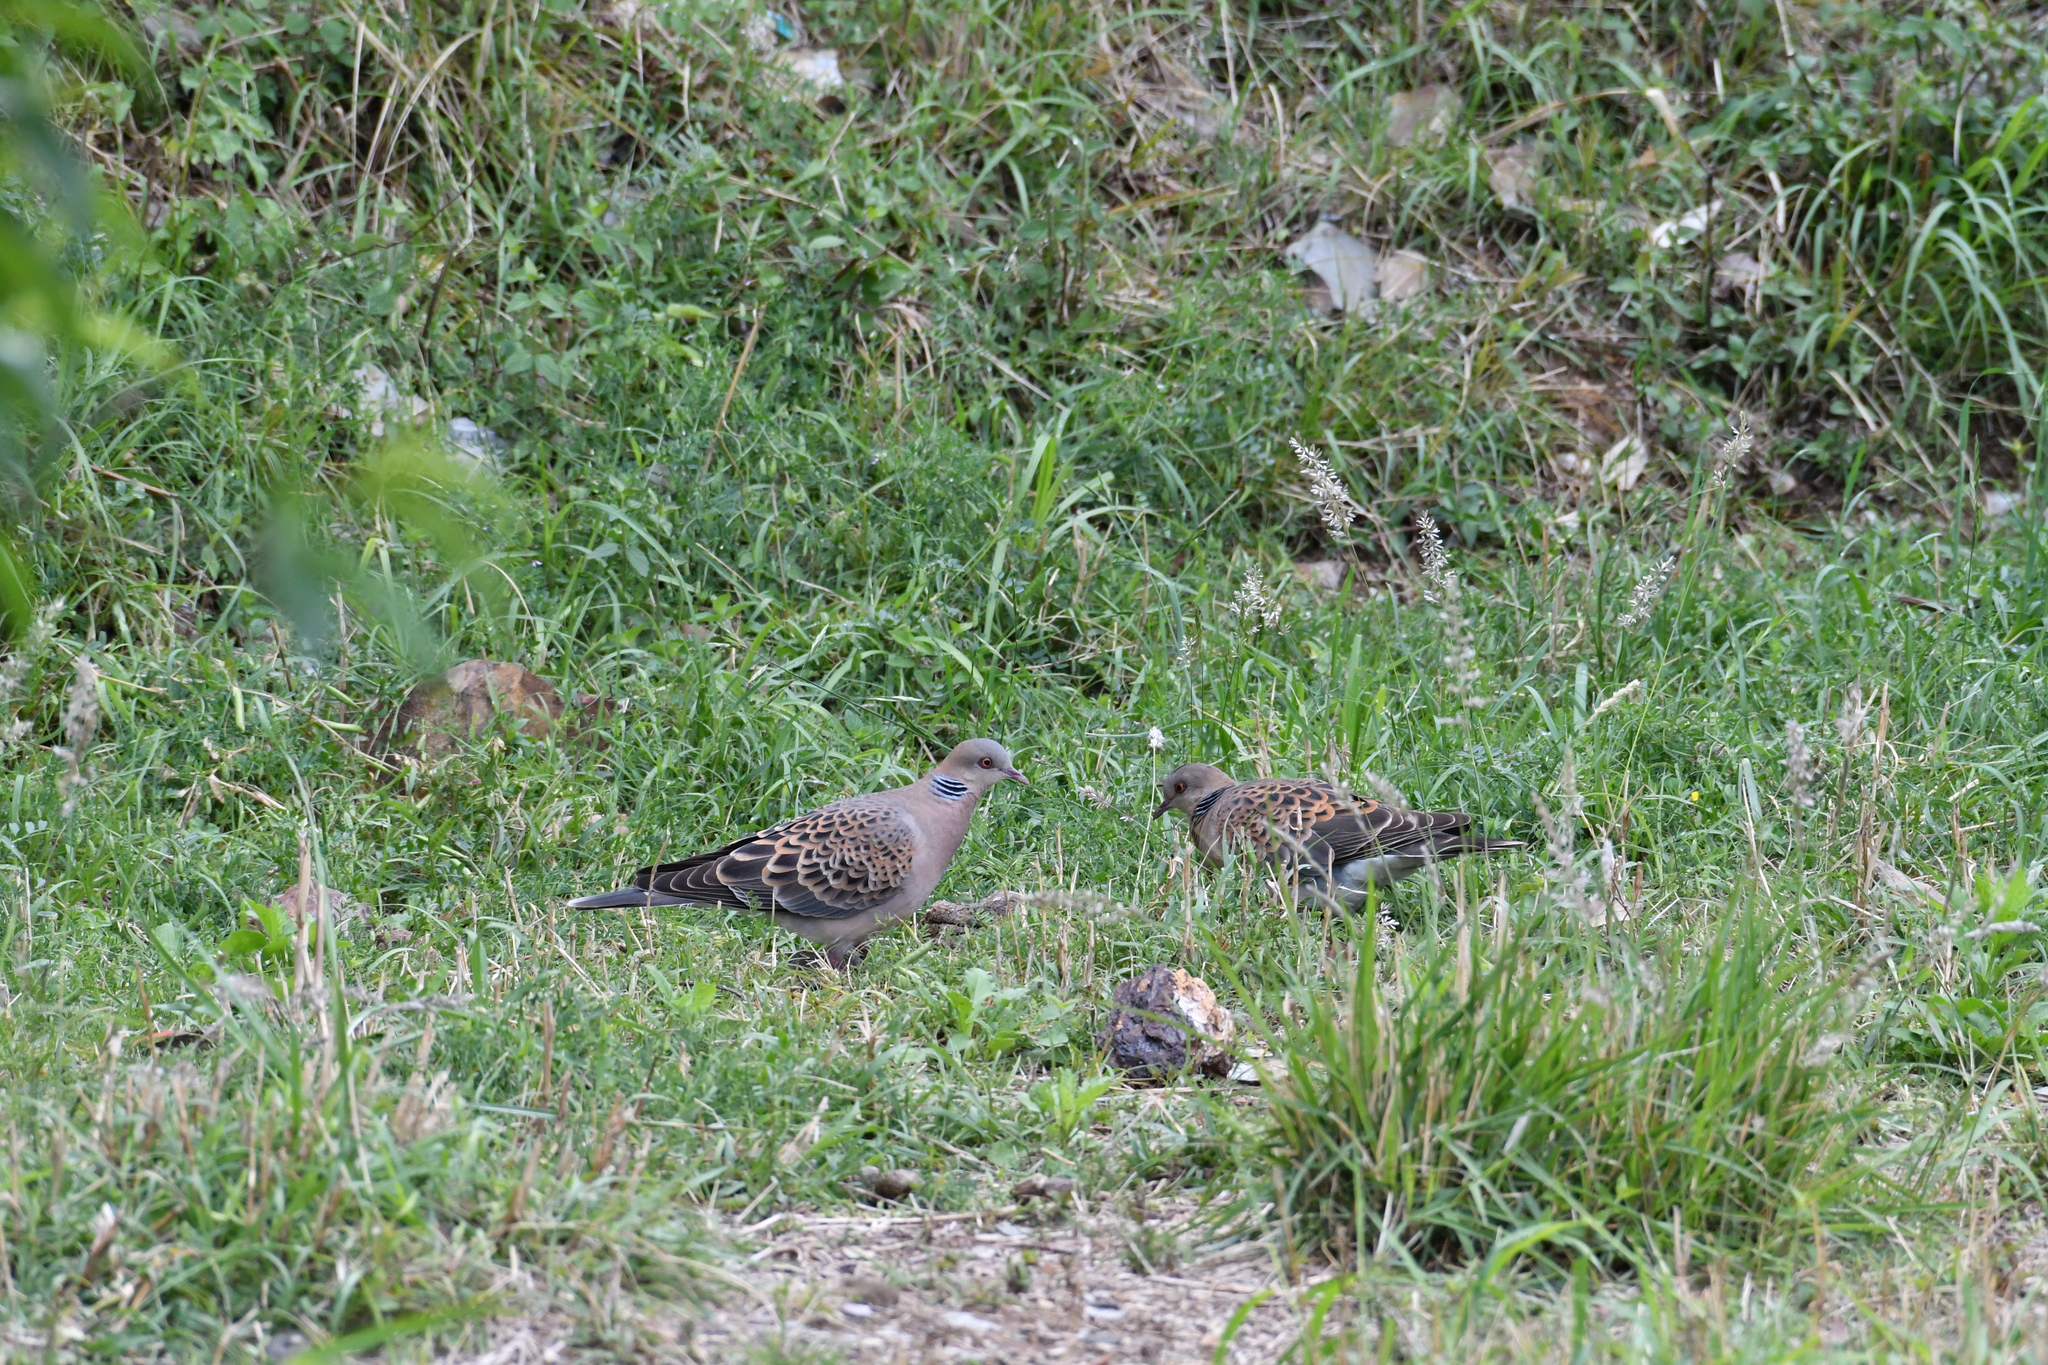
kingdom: Animalia
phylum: Chordata
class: Aves
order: Columbiformes
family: Columbidae
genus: Streptopelia
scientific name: Streptopelia orientalis
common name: Oriental turtle dove
